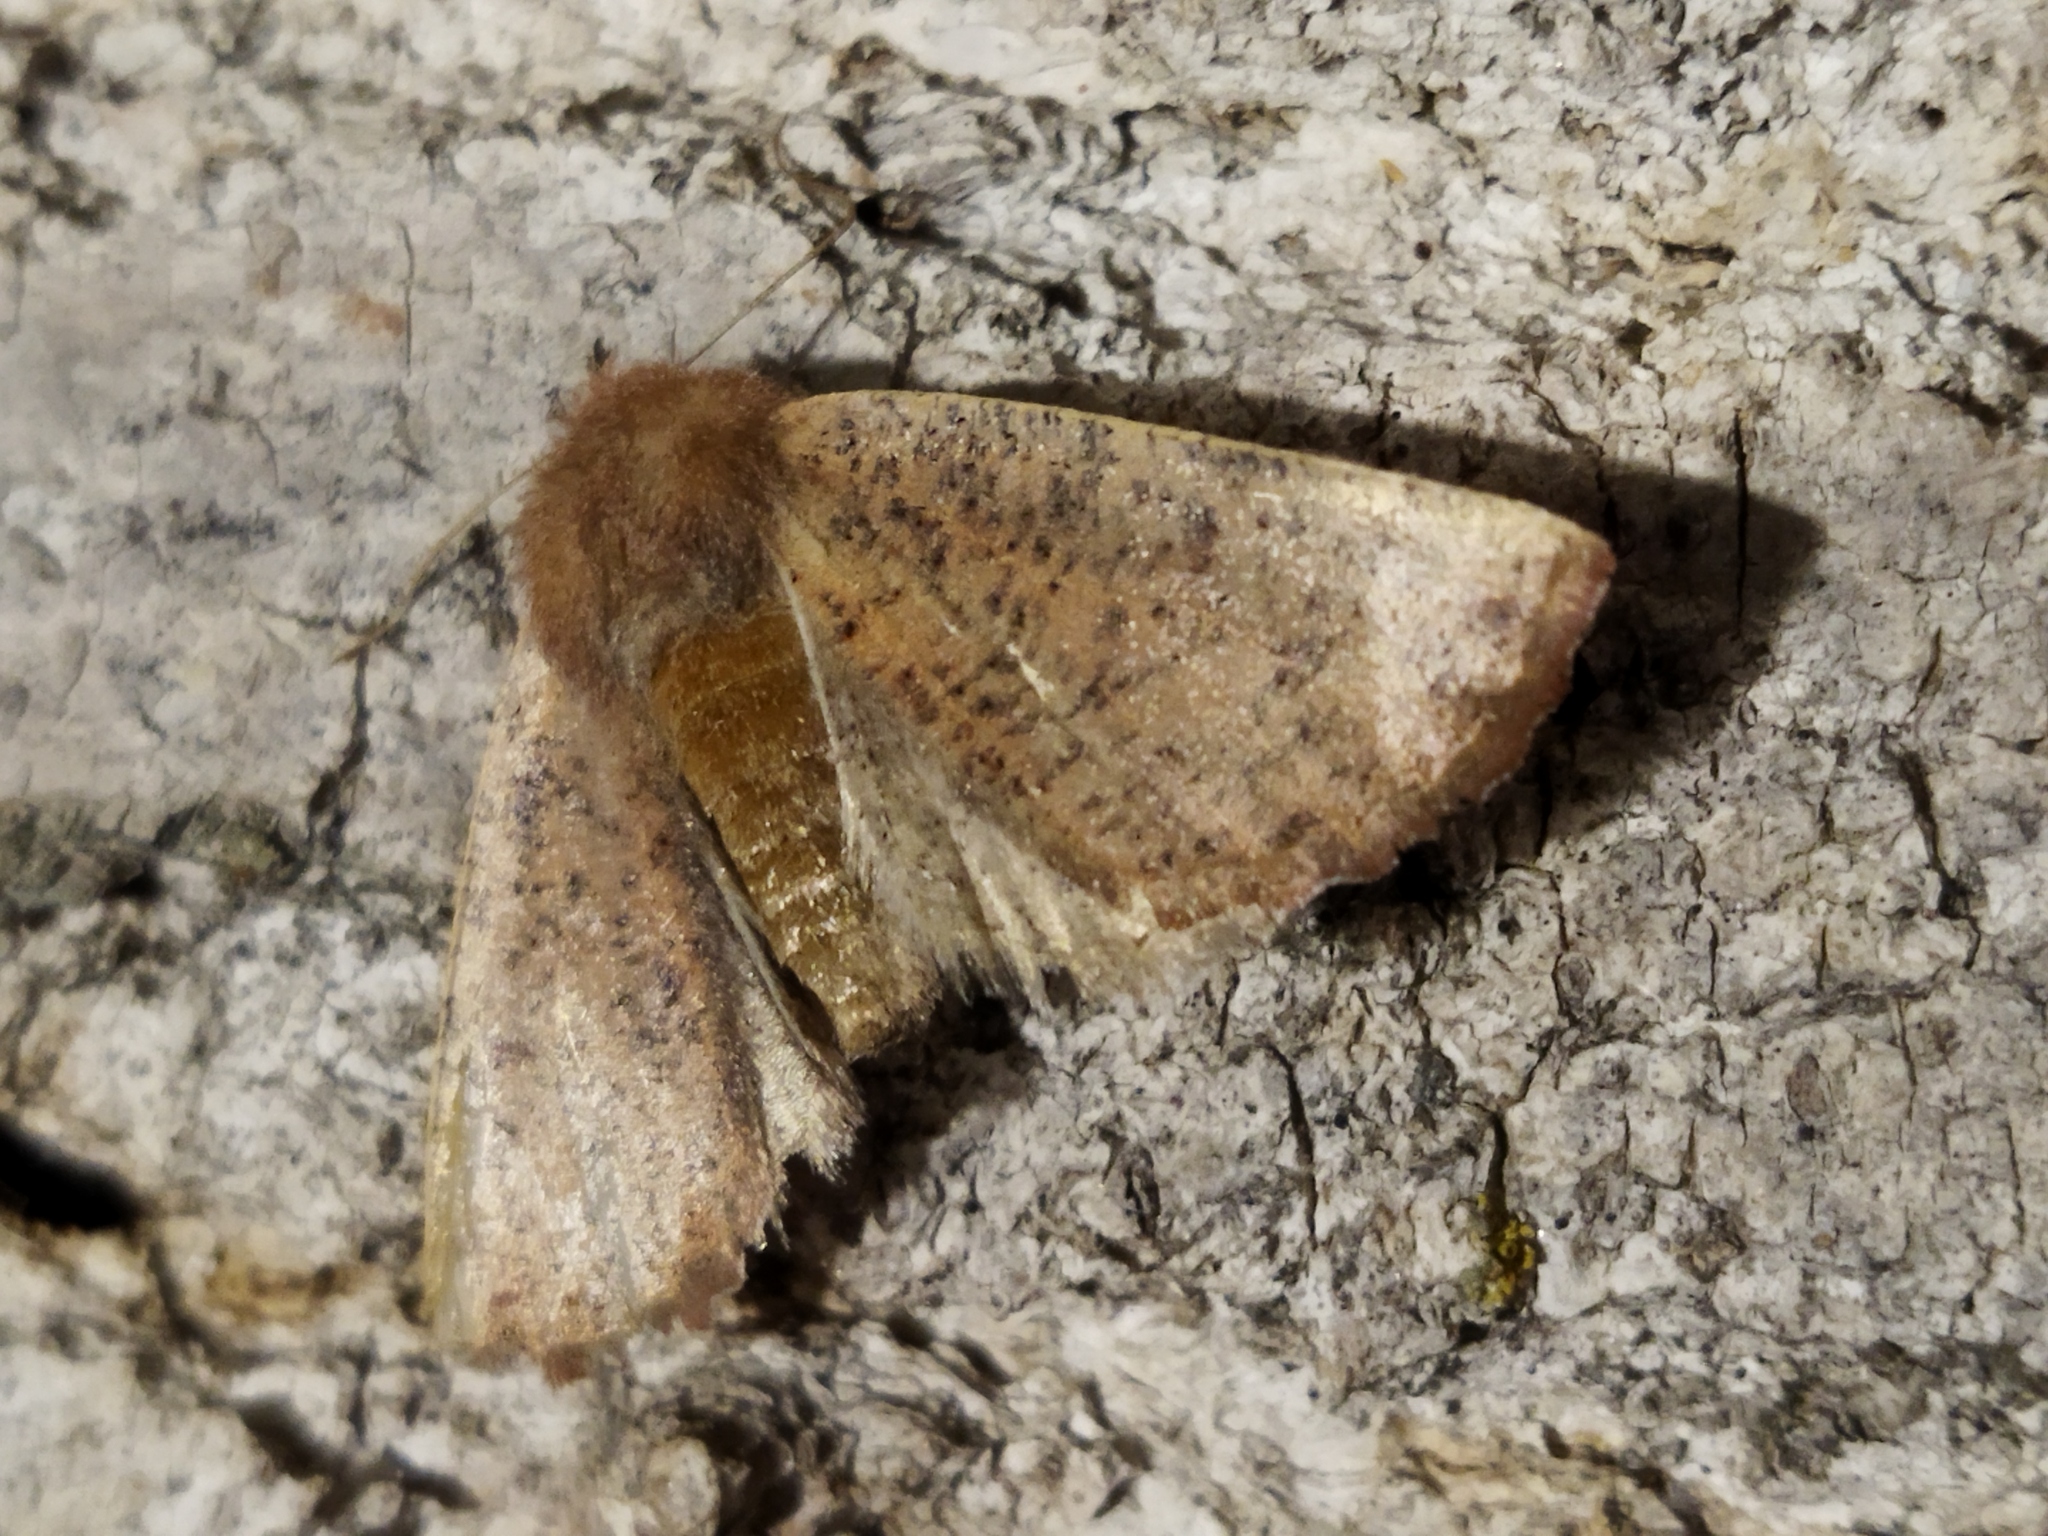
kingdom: Animalia
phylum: Arthropoda
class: Insecta
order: Lepidoptera
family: Geometridae
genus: Dasycorsa
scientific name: Dasycorsa modesta
